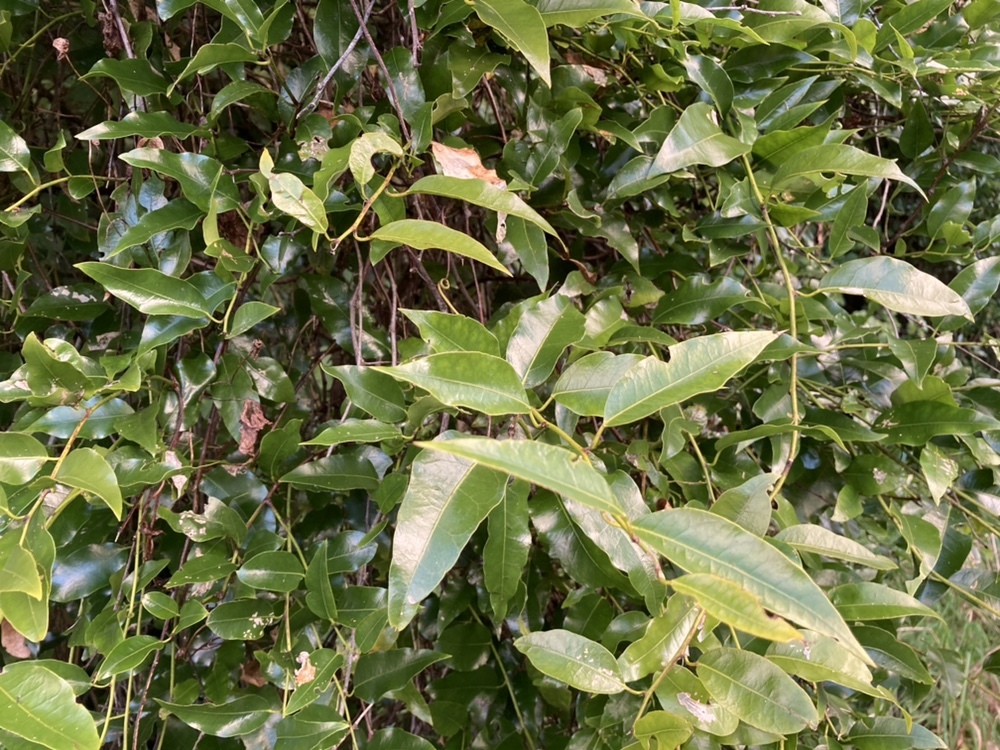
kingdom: Plantae
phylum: Tracheophyta
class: Magnoliopsida
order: Malpighiales
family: Passifloraceae
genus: Passiflora
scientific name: Passiflora tetrandra
